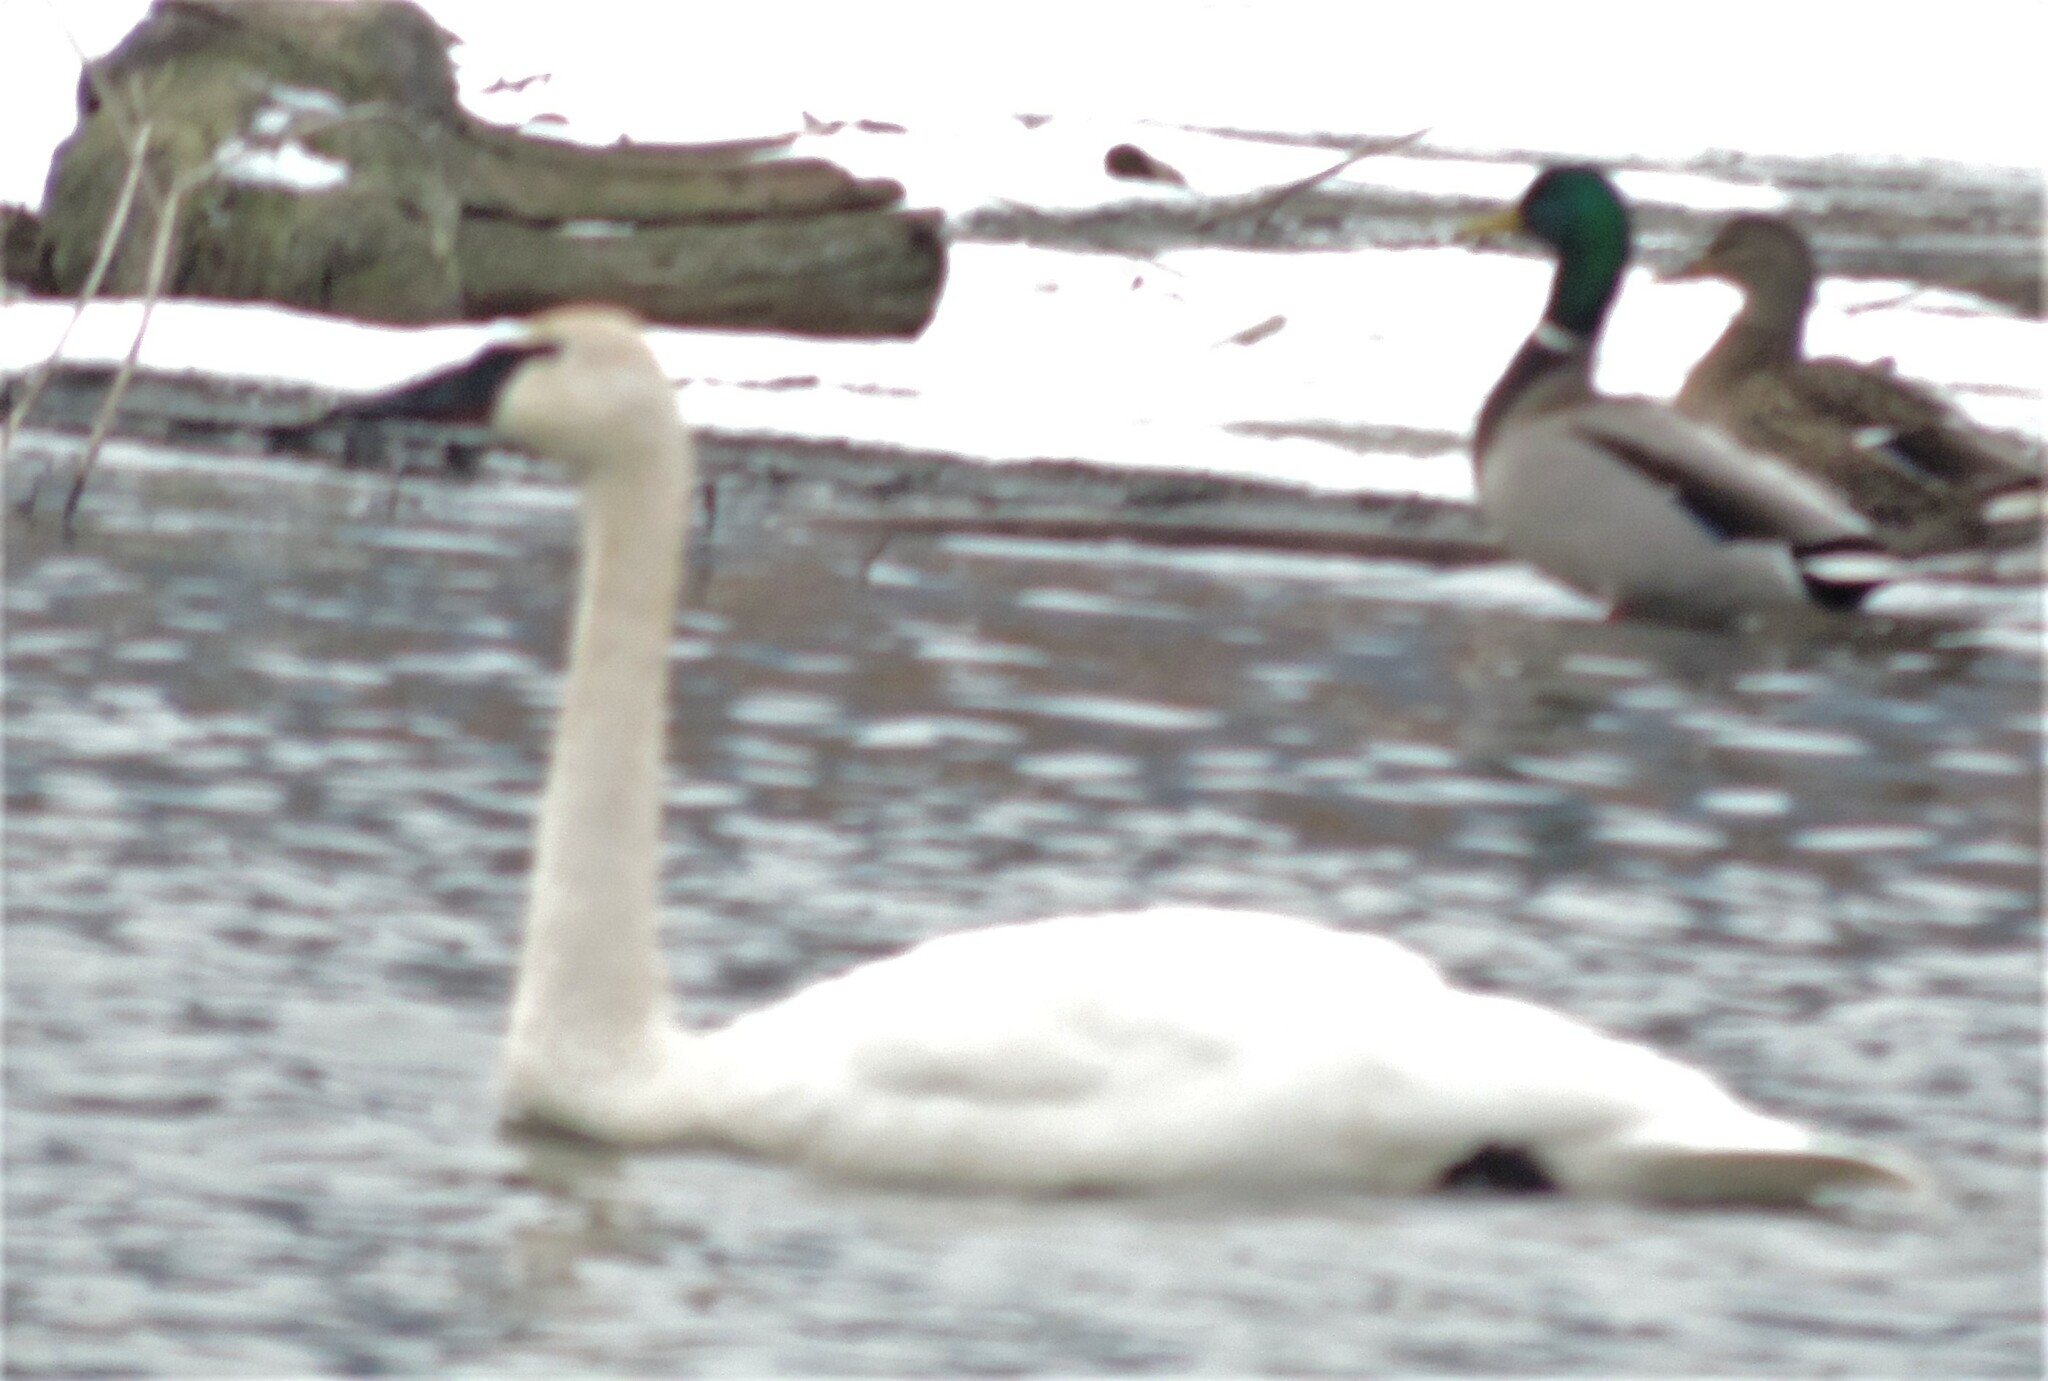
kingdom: Animalia
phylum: Chordata
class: Aves
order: Anseriformes
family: Anatidae
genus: Cygnus
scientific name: Cygnus buccinator
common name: Trumpeter swan
